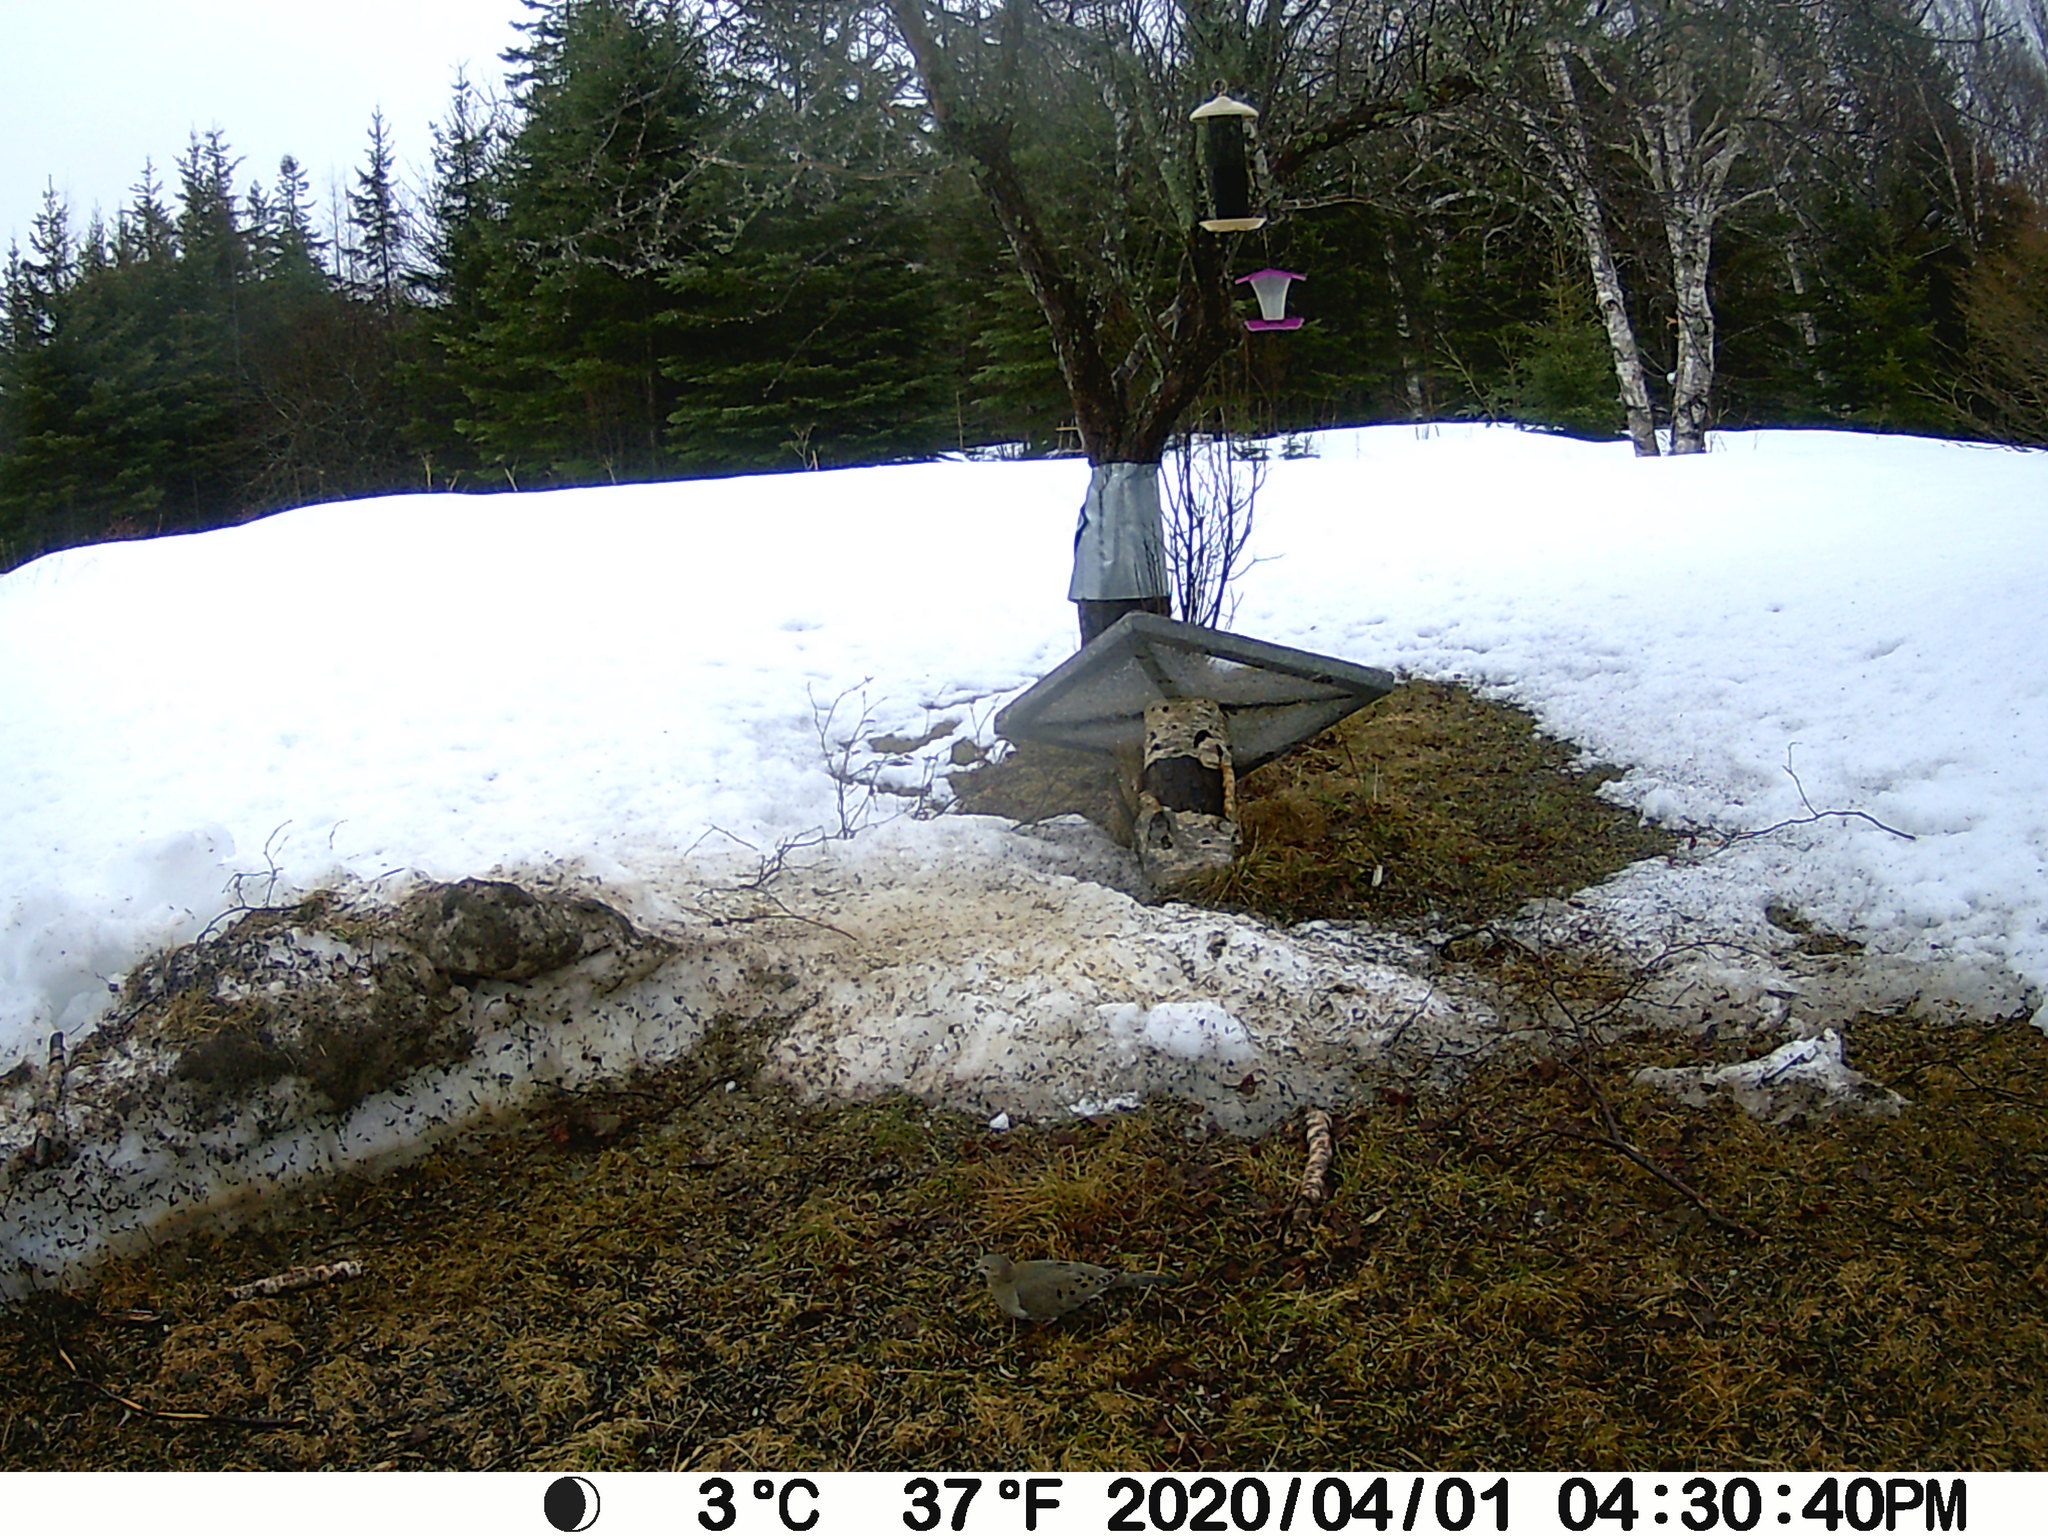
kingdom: Animalia
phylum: Chordata
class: Aves
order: Columbiformes
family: Columbidae
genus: Zenaida
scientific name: Zenaida macroura
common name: Mourning dove
